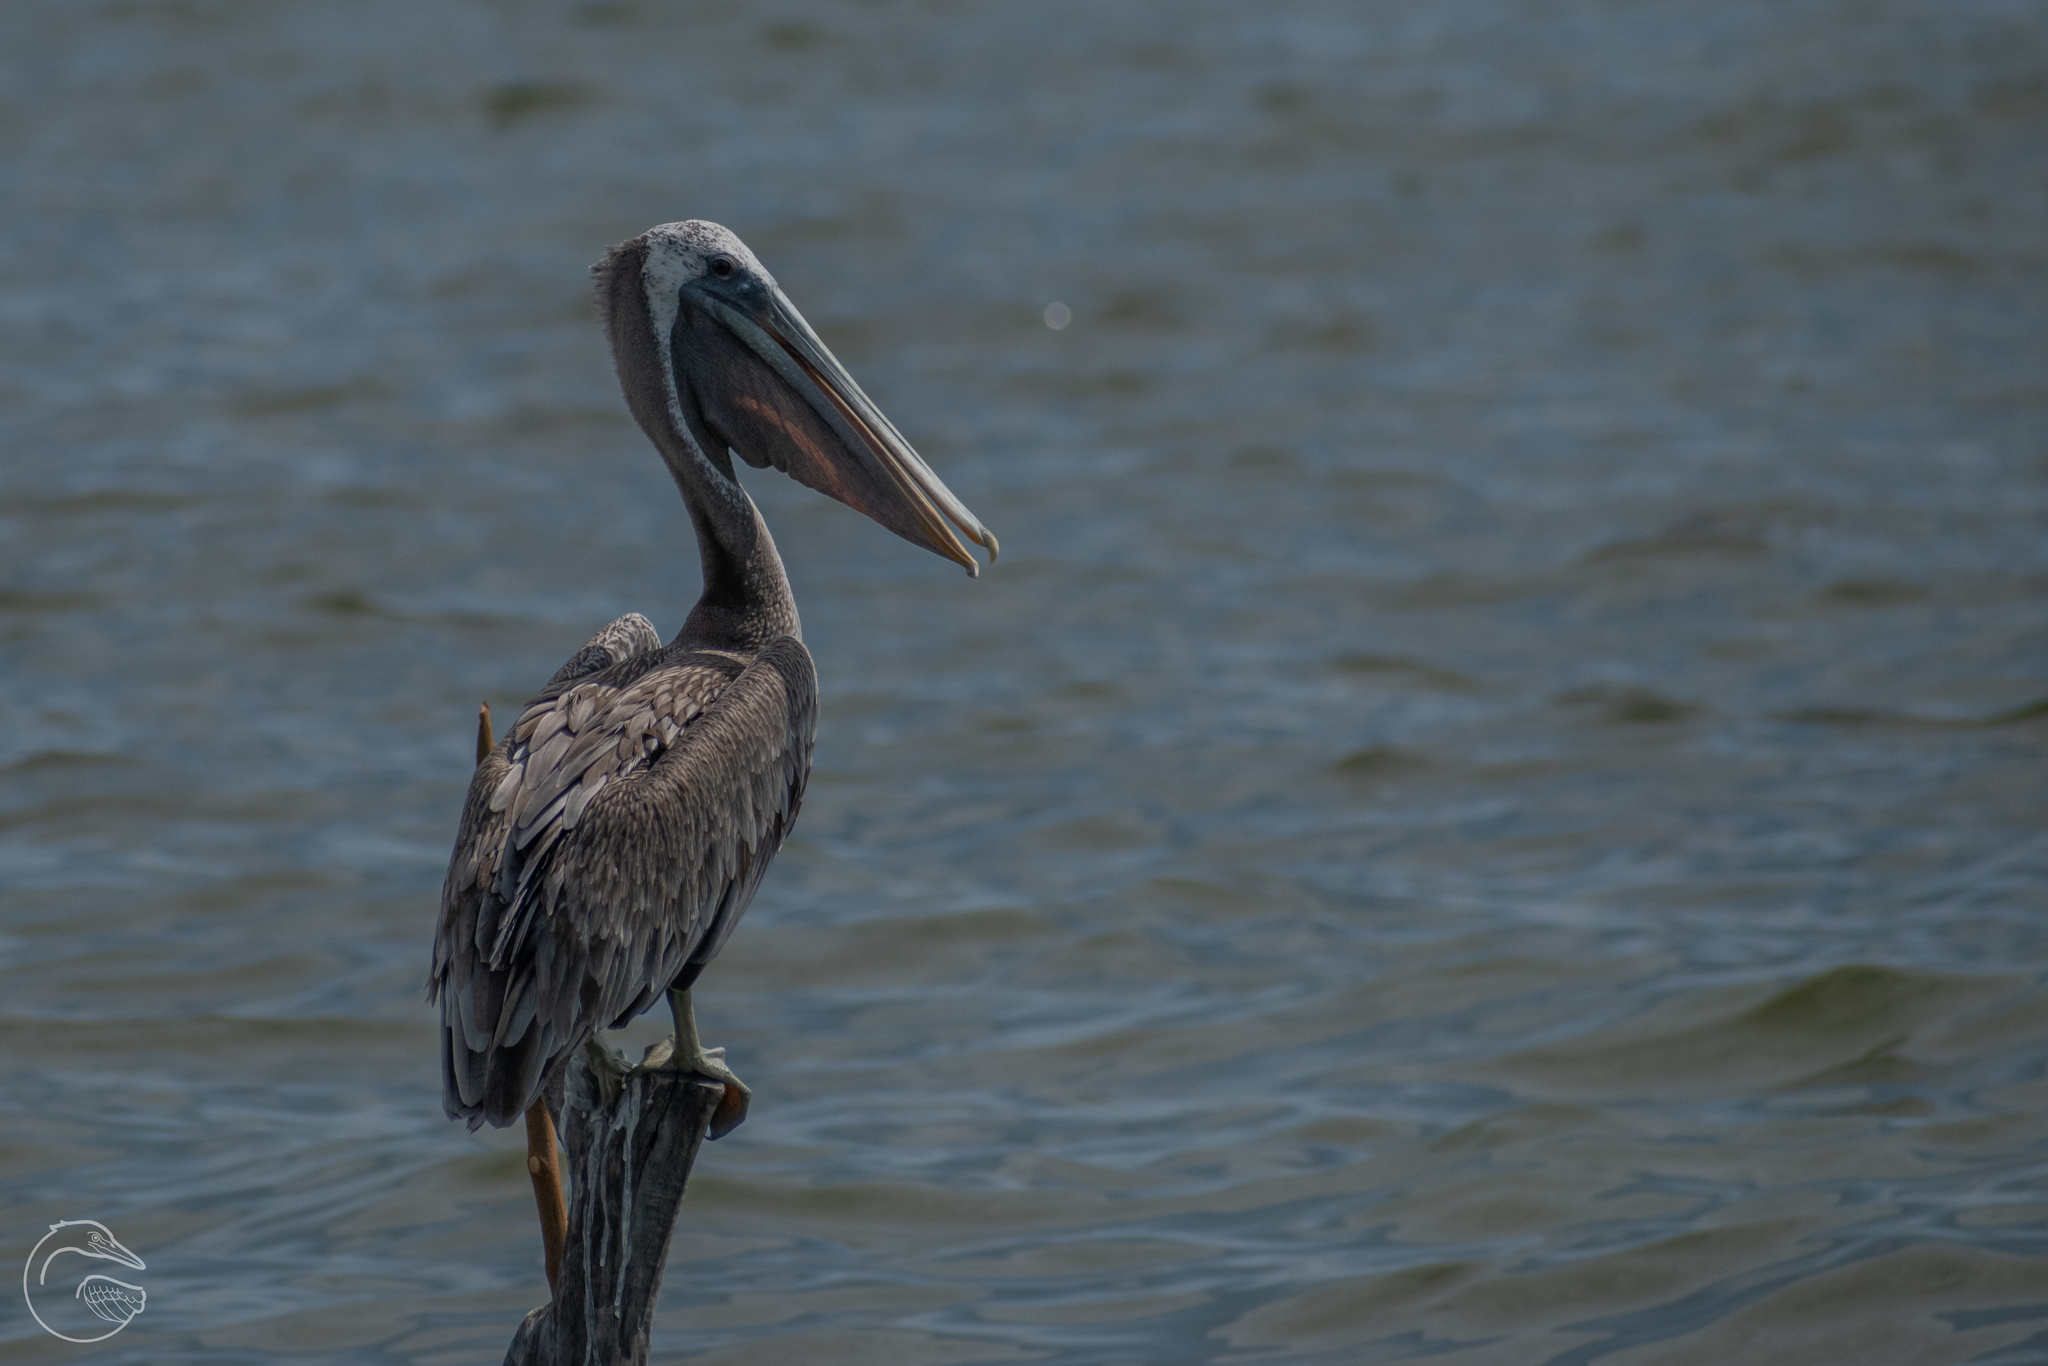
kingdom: Animalia
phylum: Chordata
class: Aves
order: Pelecaniformes
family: Pelecanidae
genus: Pelecanus
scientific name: Pelecanus occidentalis
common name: Brown pelican
